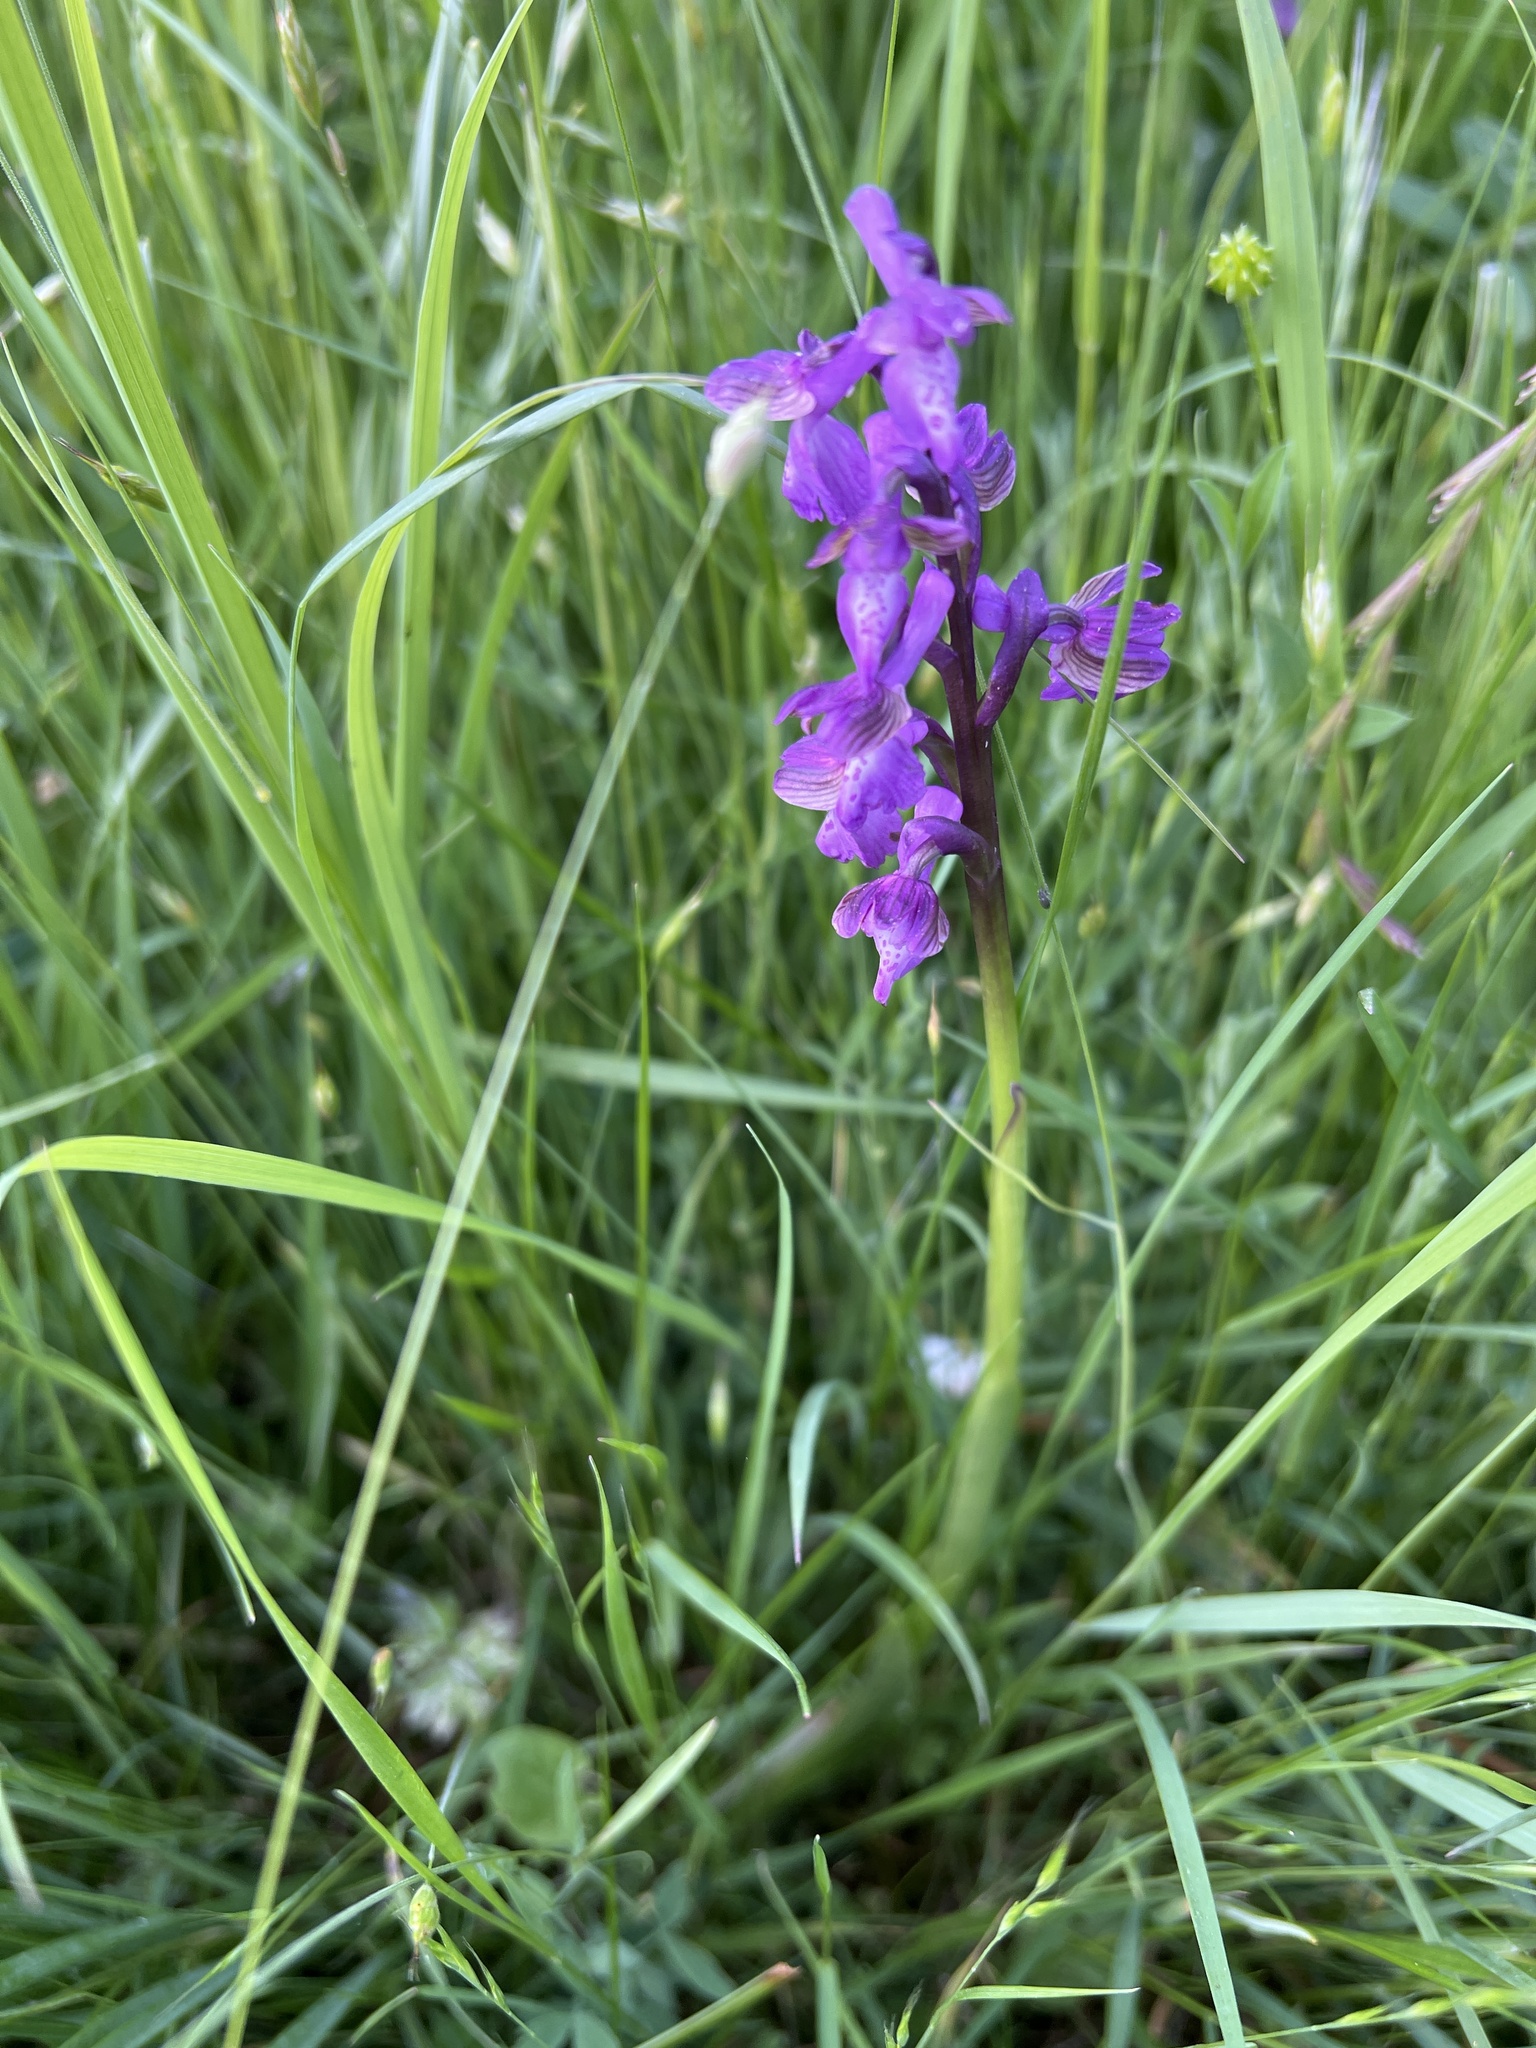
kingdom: Plantae
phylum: Tracheophyta
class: Liliopsida
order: Asparagales
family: Orchidaceae
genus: Anacamptis
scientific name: Anacamptis morio
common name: Green-winged orchid
